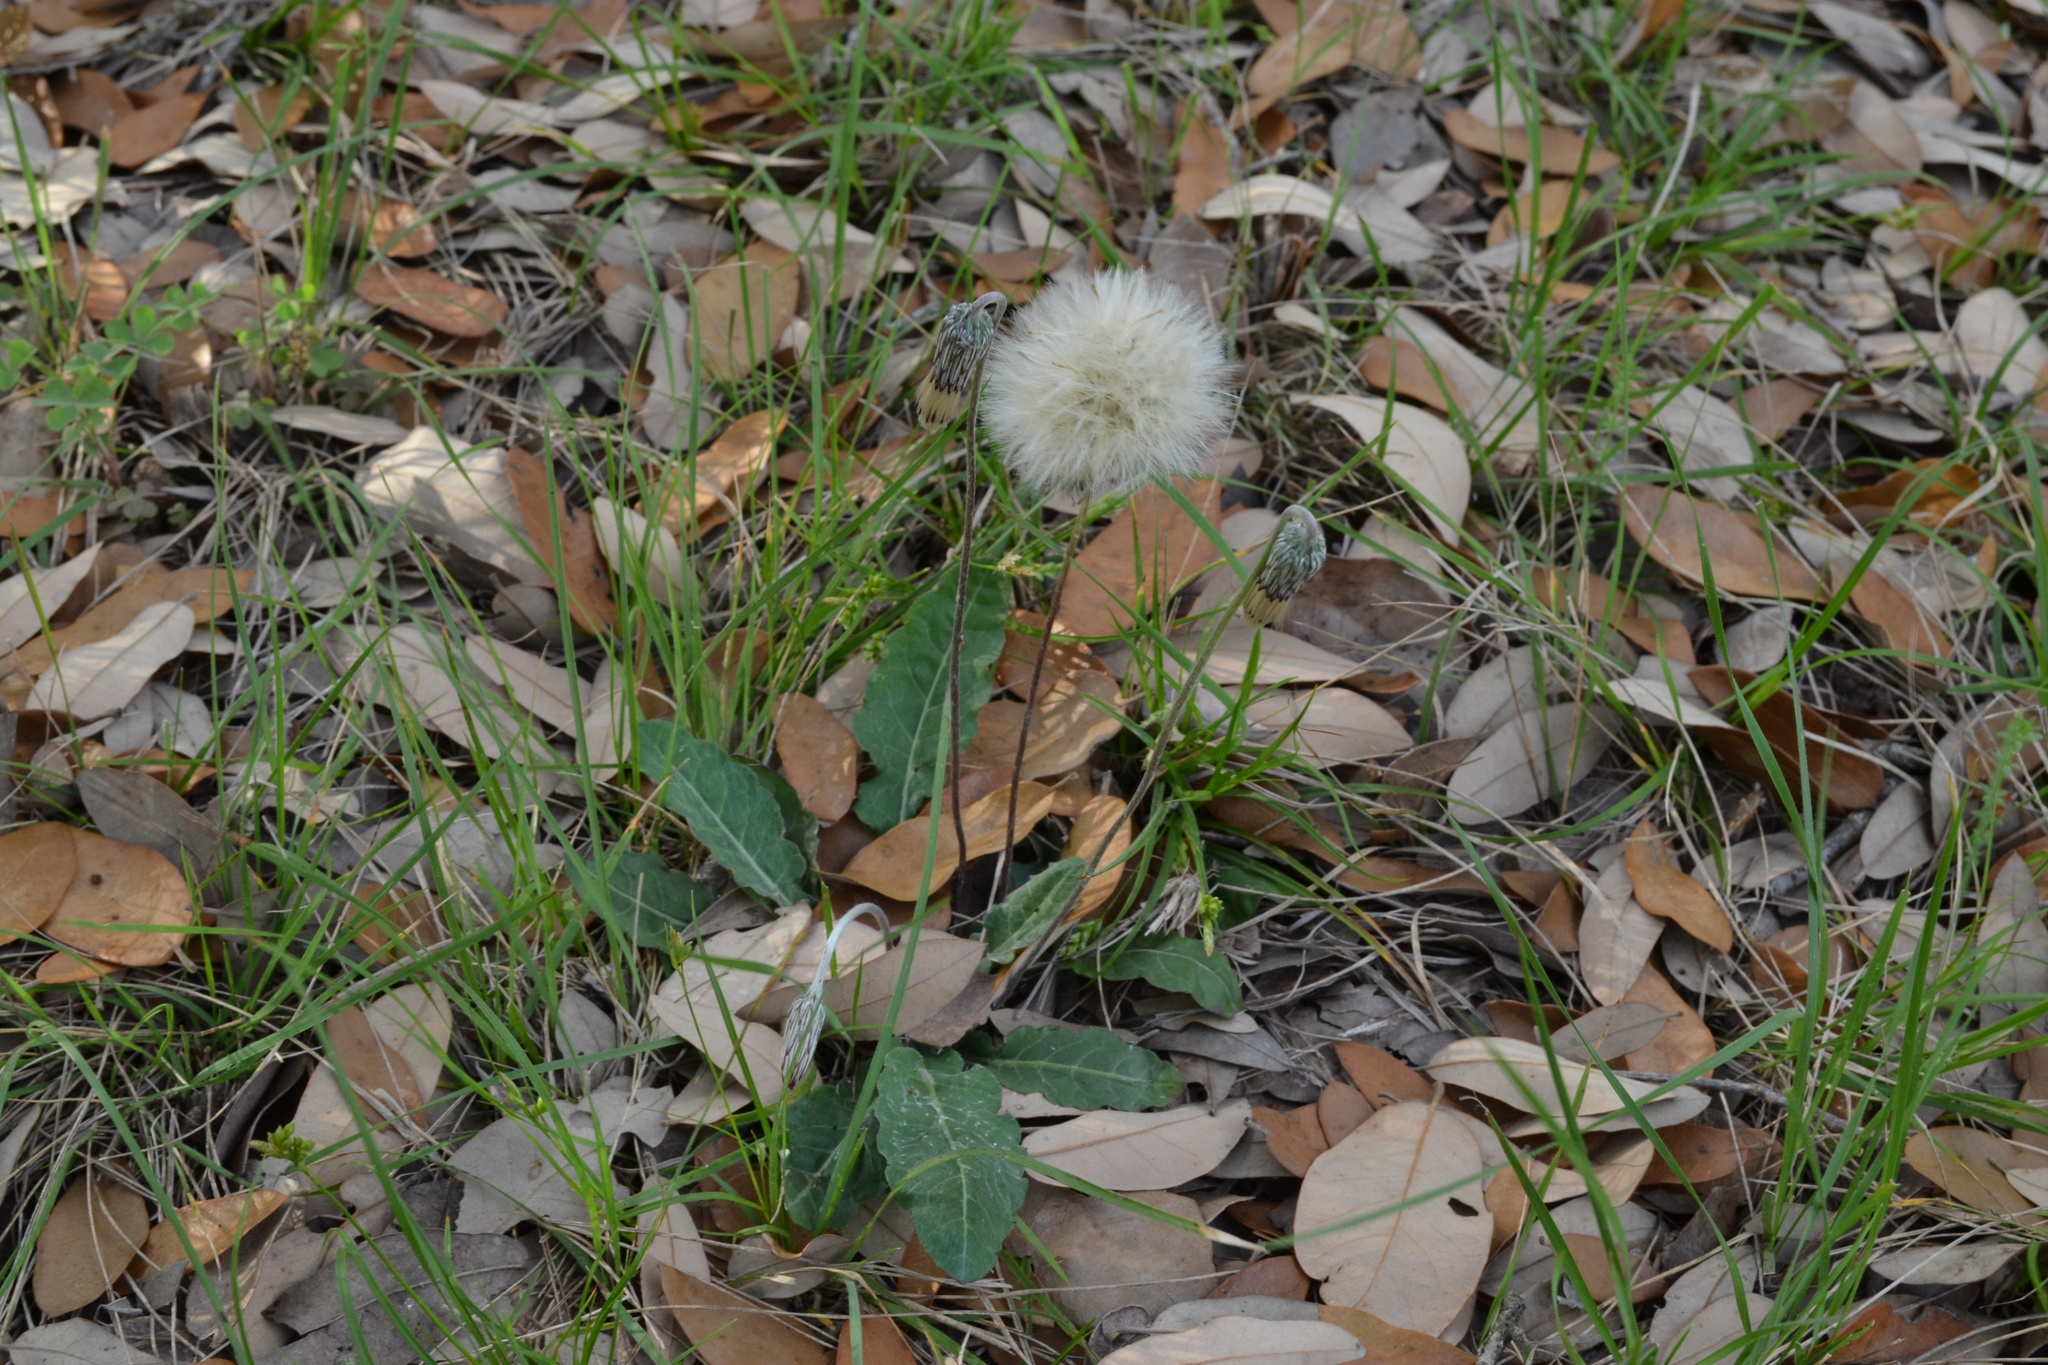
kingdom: Plantae
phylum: Tracheophyta
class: Magnoliopsida
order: Asterales
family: Asteraceae
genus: Chaptalia
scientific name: Chaptalia texana
